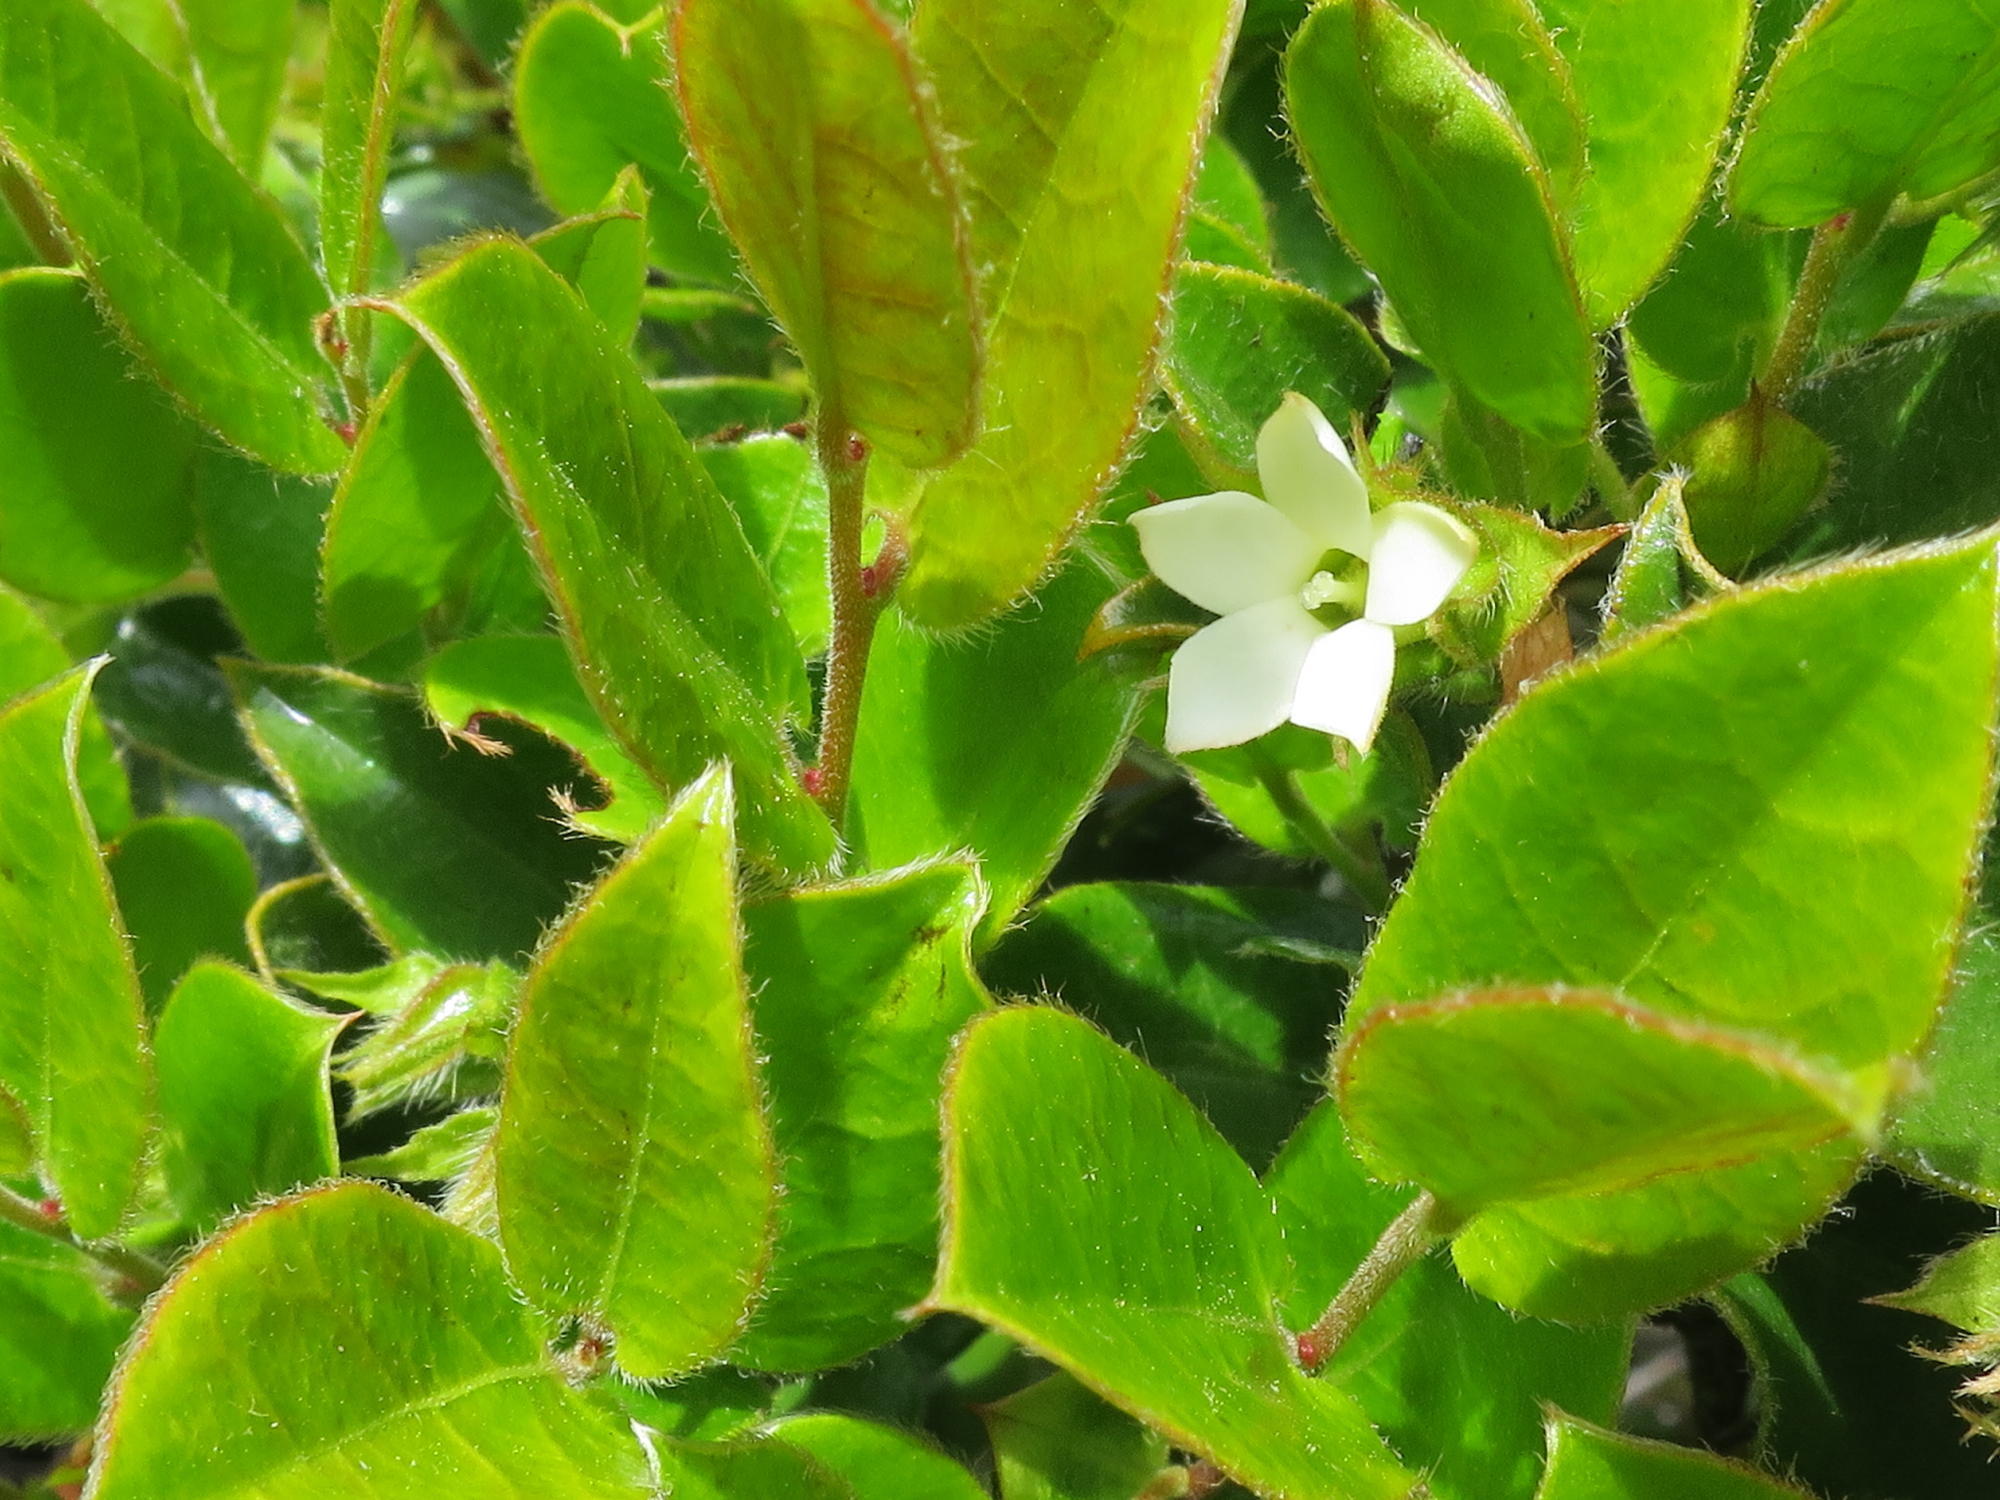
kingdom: Plantae
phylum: Tracheophyta
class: Magnoliopsida
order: Ericales
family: Ebenaceae
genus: Diospyros
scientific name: Diospyros whyteana
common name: Bladder-nut
